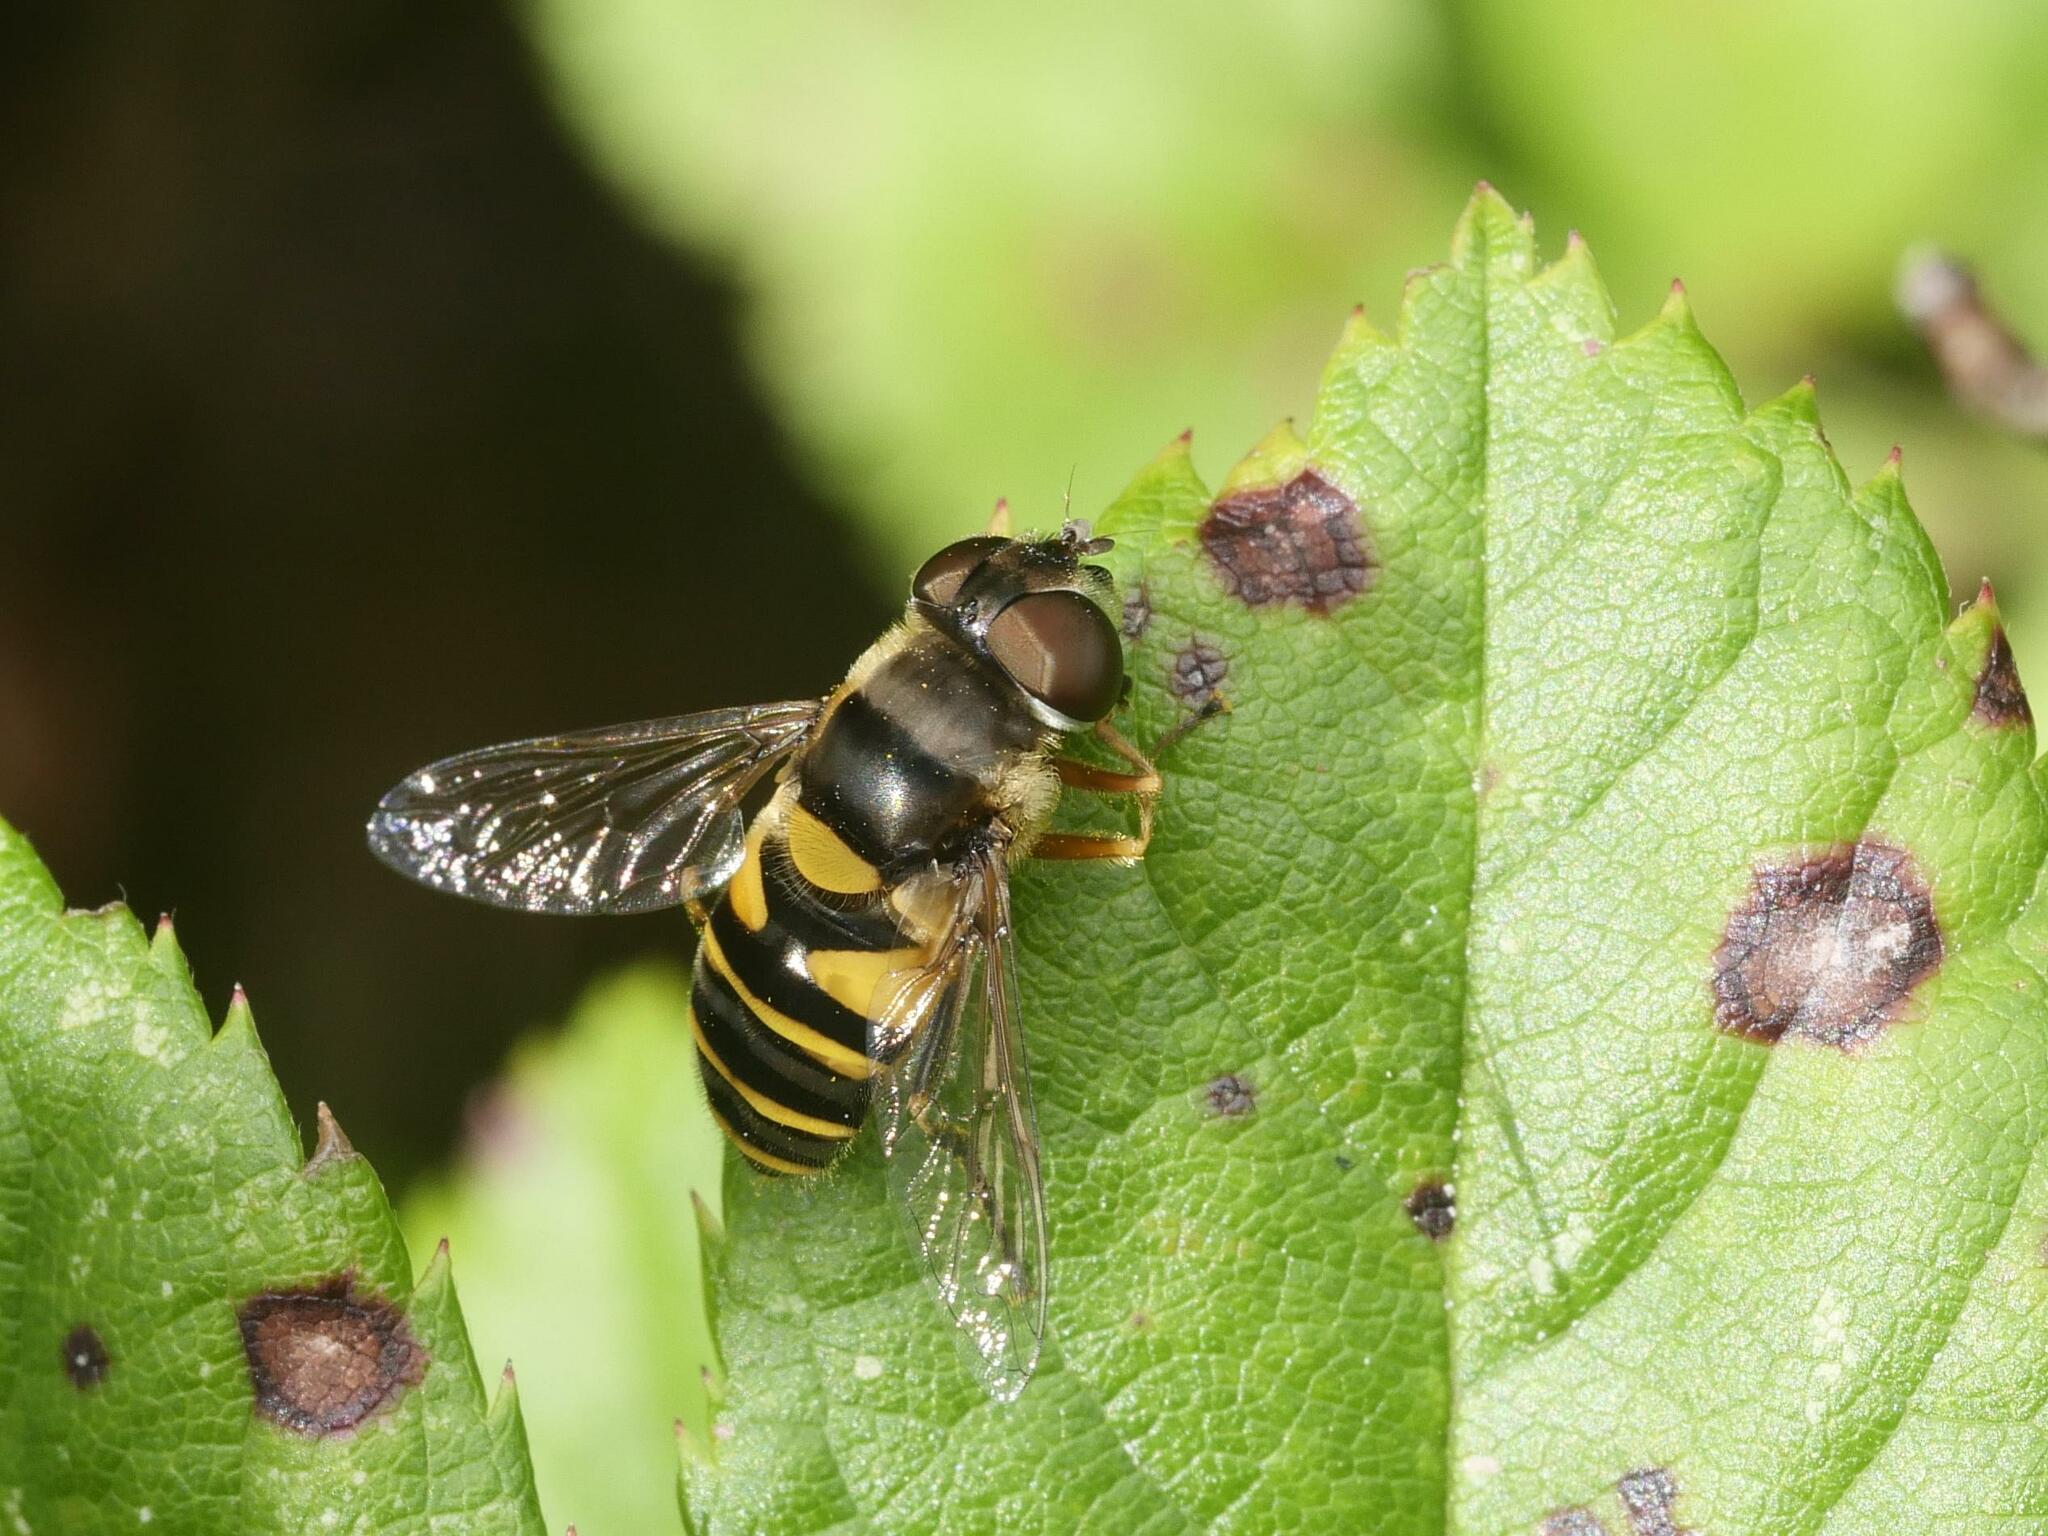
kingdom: Animalia
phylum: Arthropoda
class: Insecta
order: Diptera
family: Syrphidae
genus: Eristalis
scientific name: Eristalis transversa
